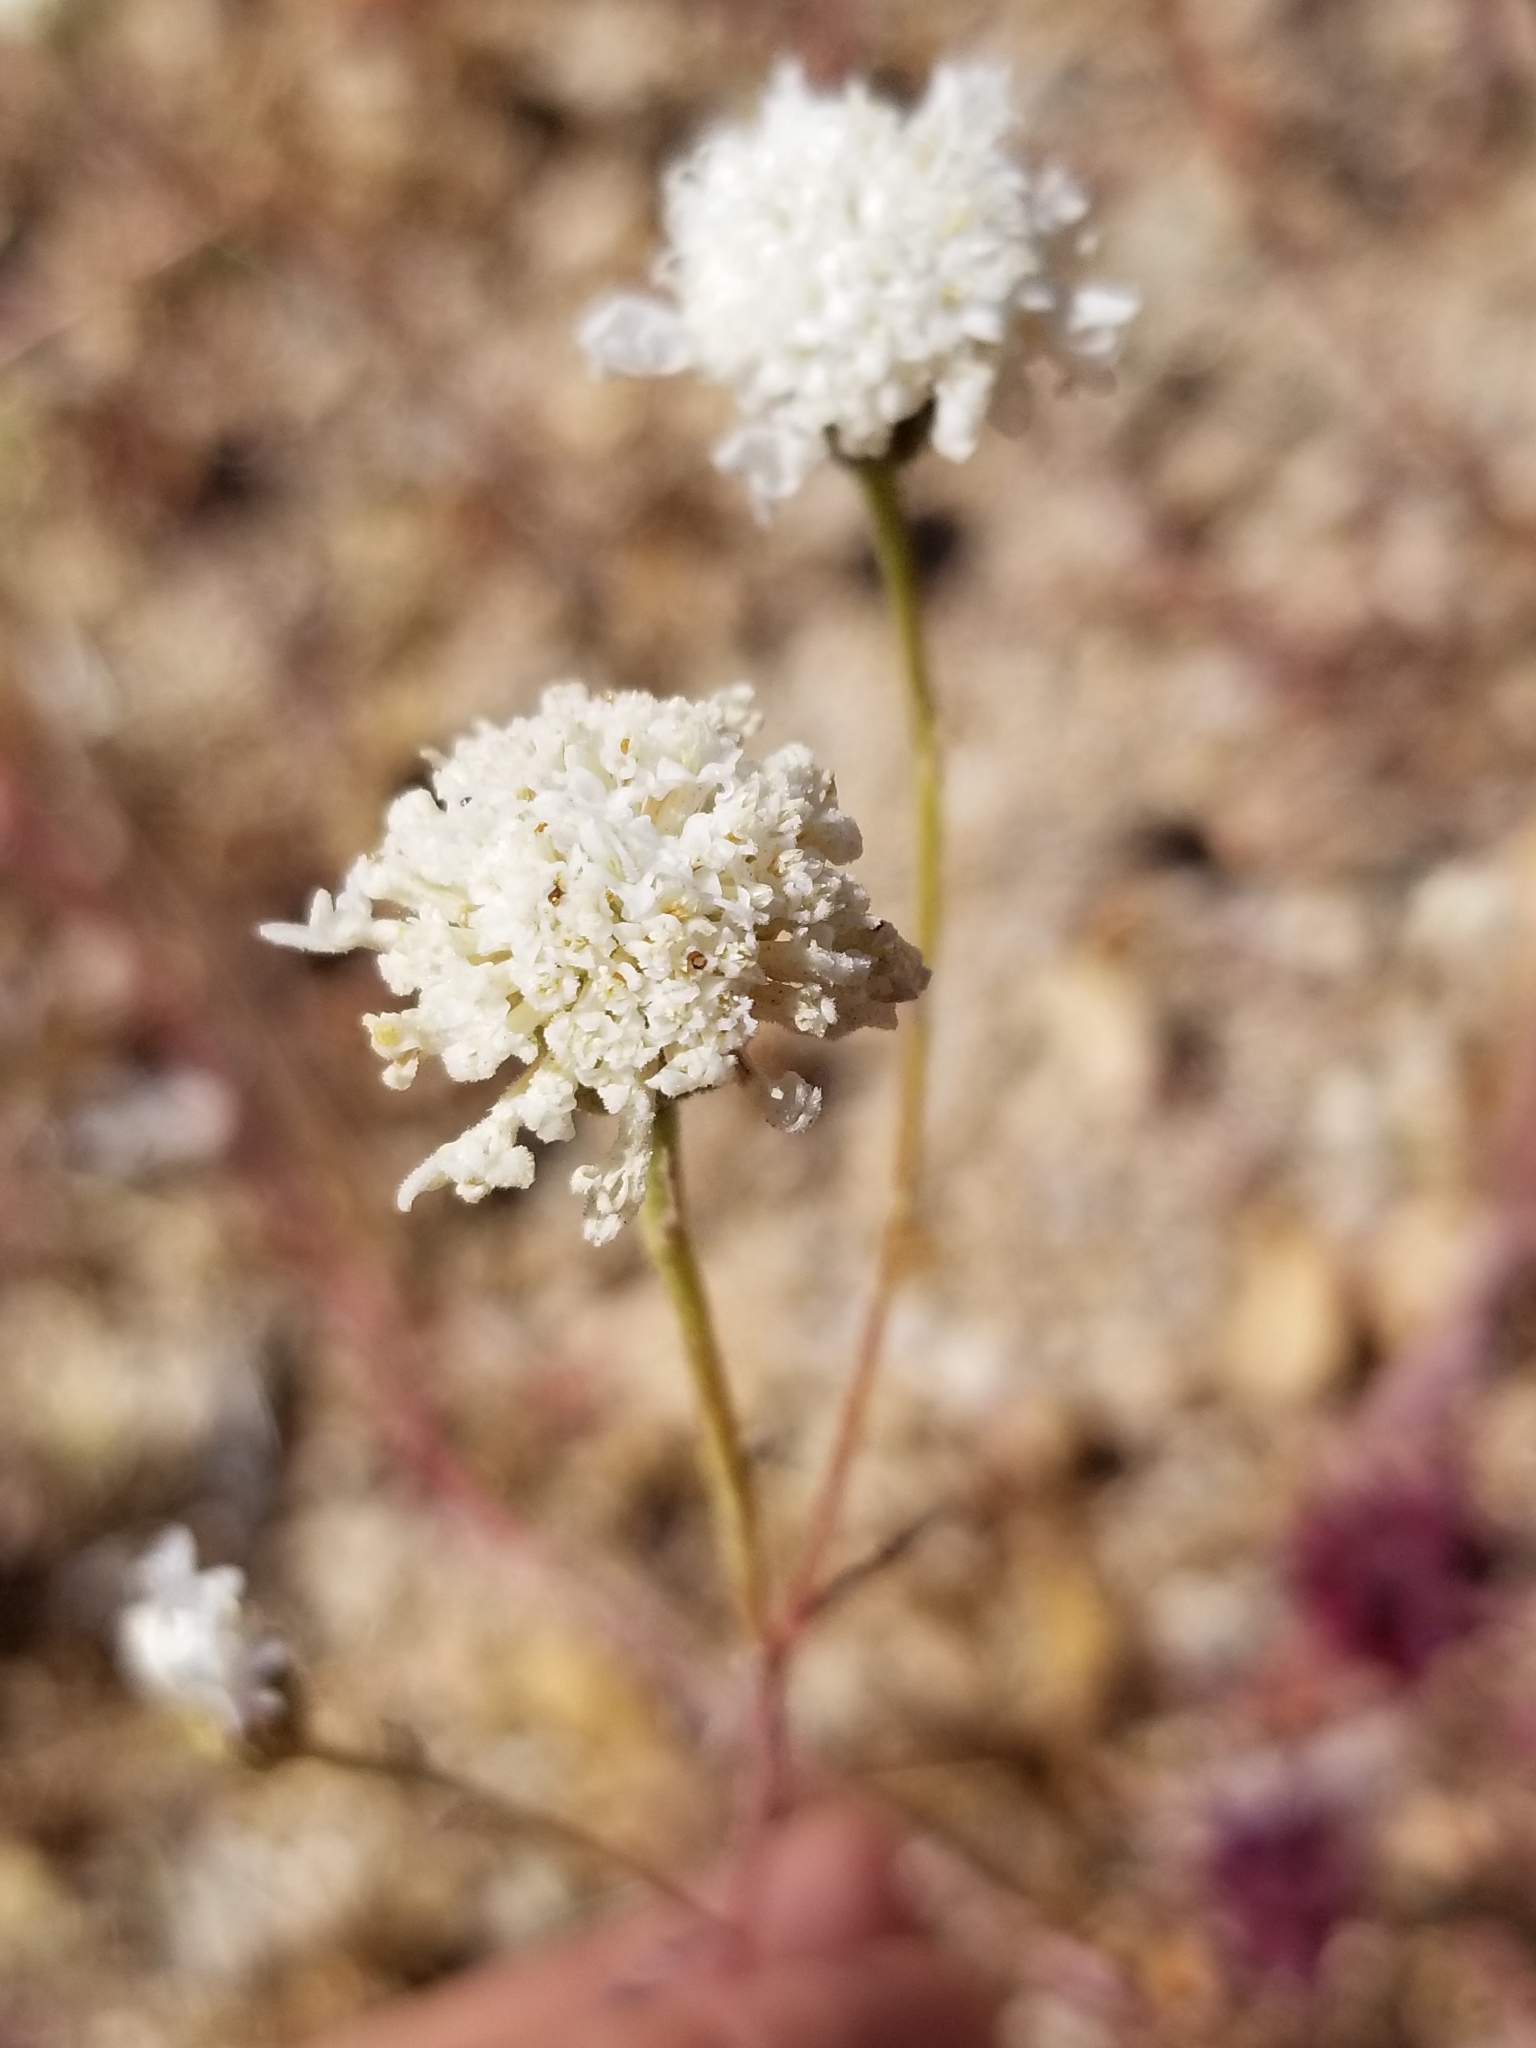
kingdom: Plantae
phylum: Tracheophyta
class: Magnoliopsida
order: Asterales
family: Asteraceae
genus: Chaenactis
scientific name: Chaenactis fremontii
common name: Fremont pincushion
